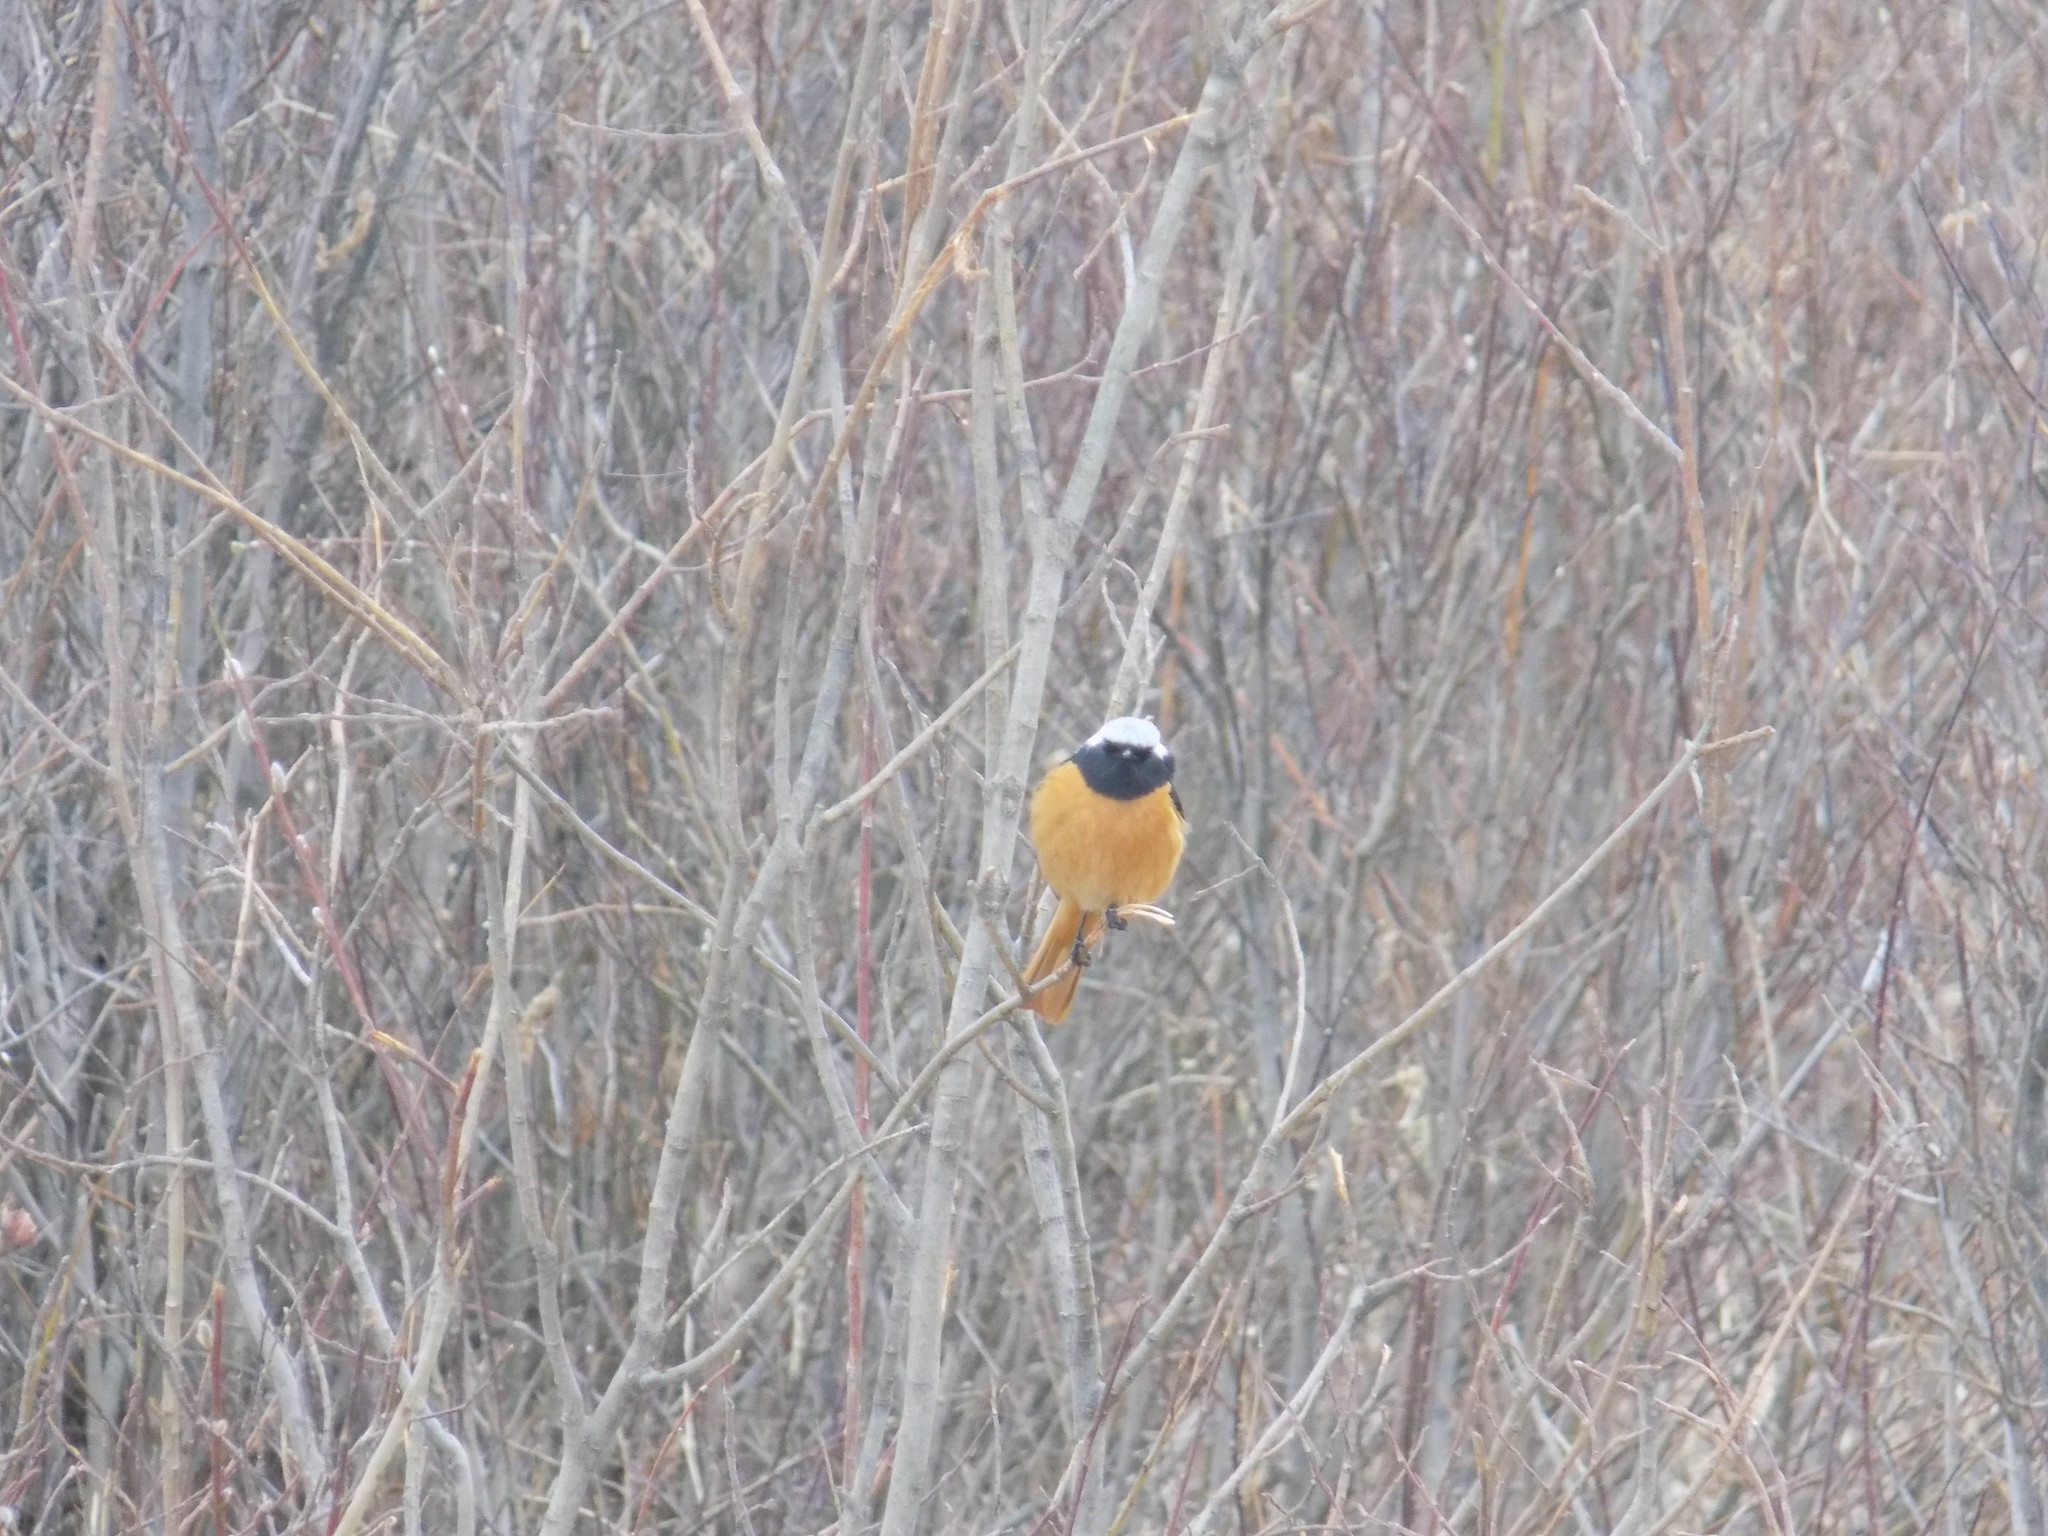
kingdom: Animalia
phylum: Chordata
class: Aves
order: Passeriformes
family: Muscicapidae
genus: Phoenicurus
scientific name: Phoenicurus auroreus
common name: Daurian redstart
